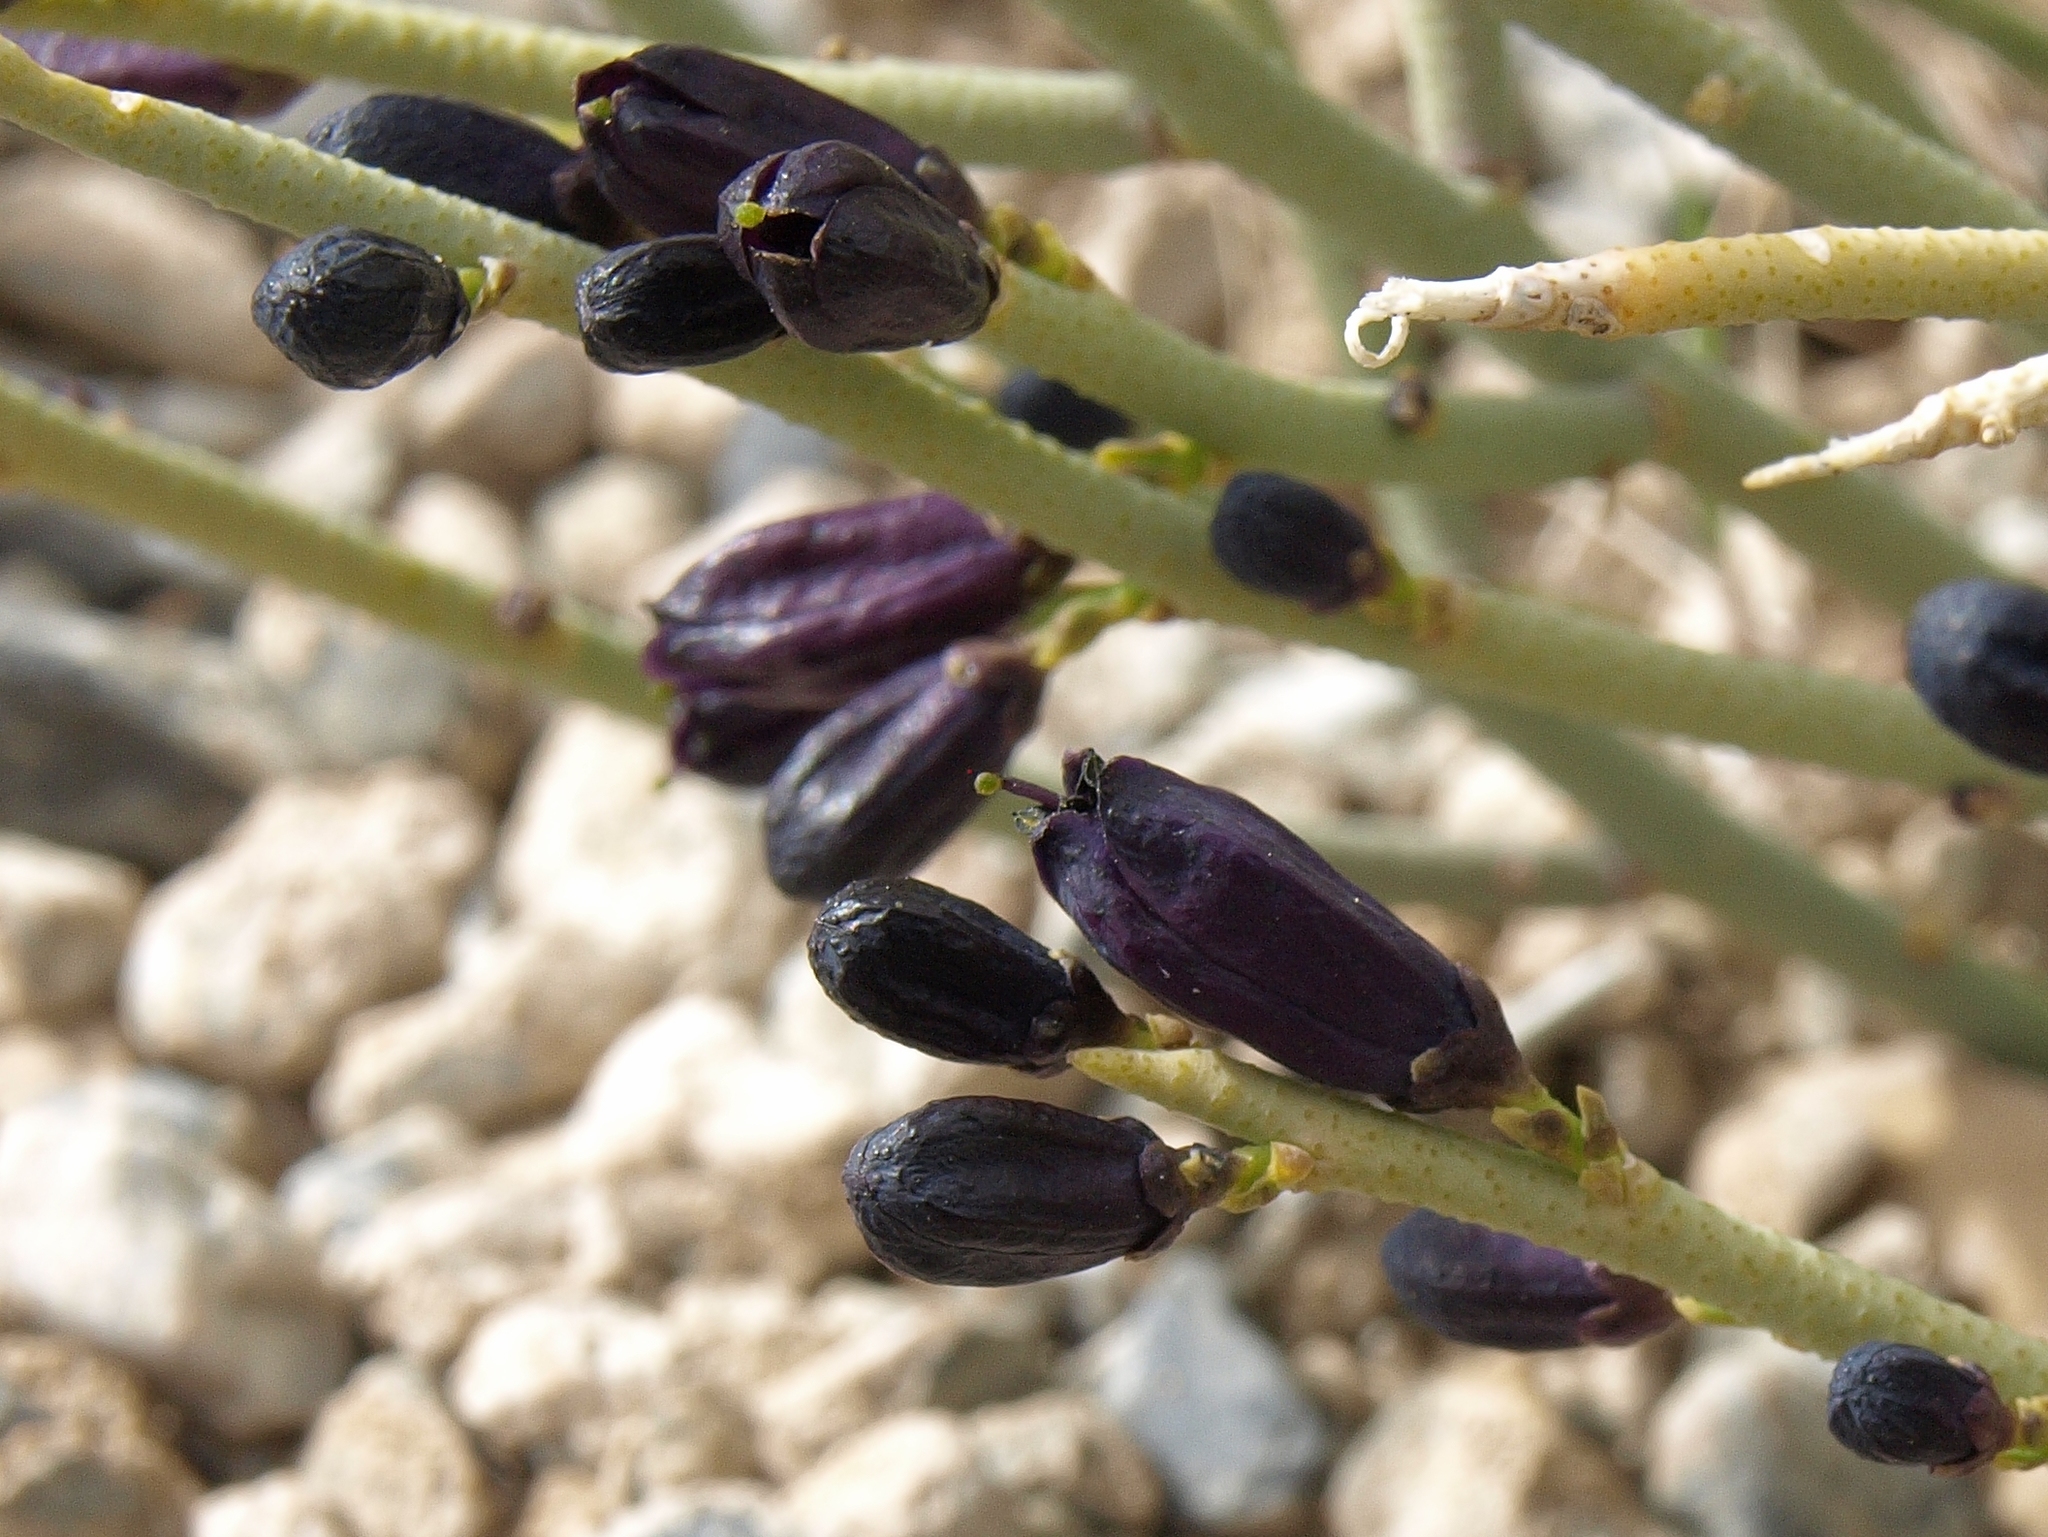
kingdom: Plantae
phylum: Tracheophyta
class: Magnoliopsida
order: Sapindales
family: Rutaceae
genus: Thamnosma
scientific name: Thamnosma montana
